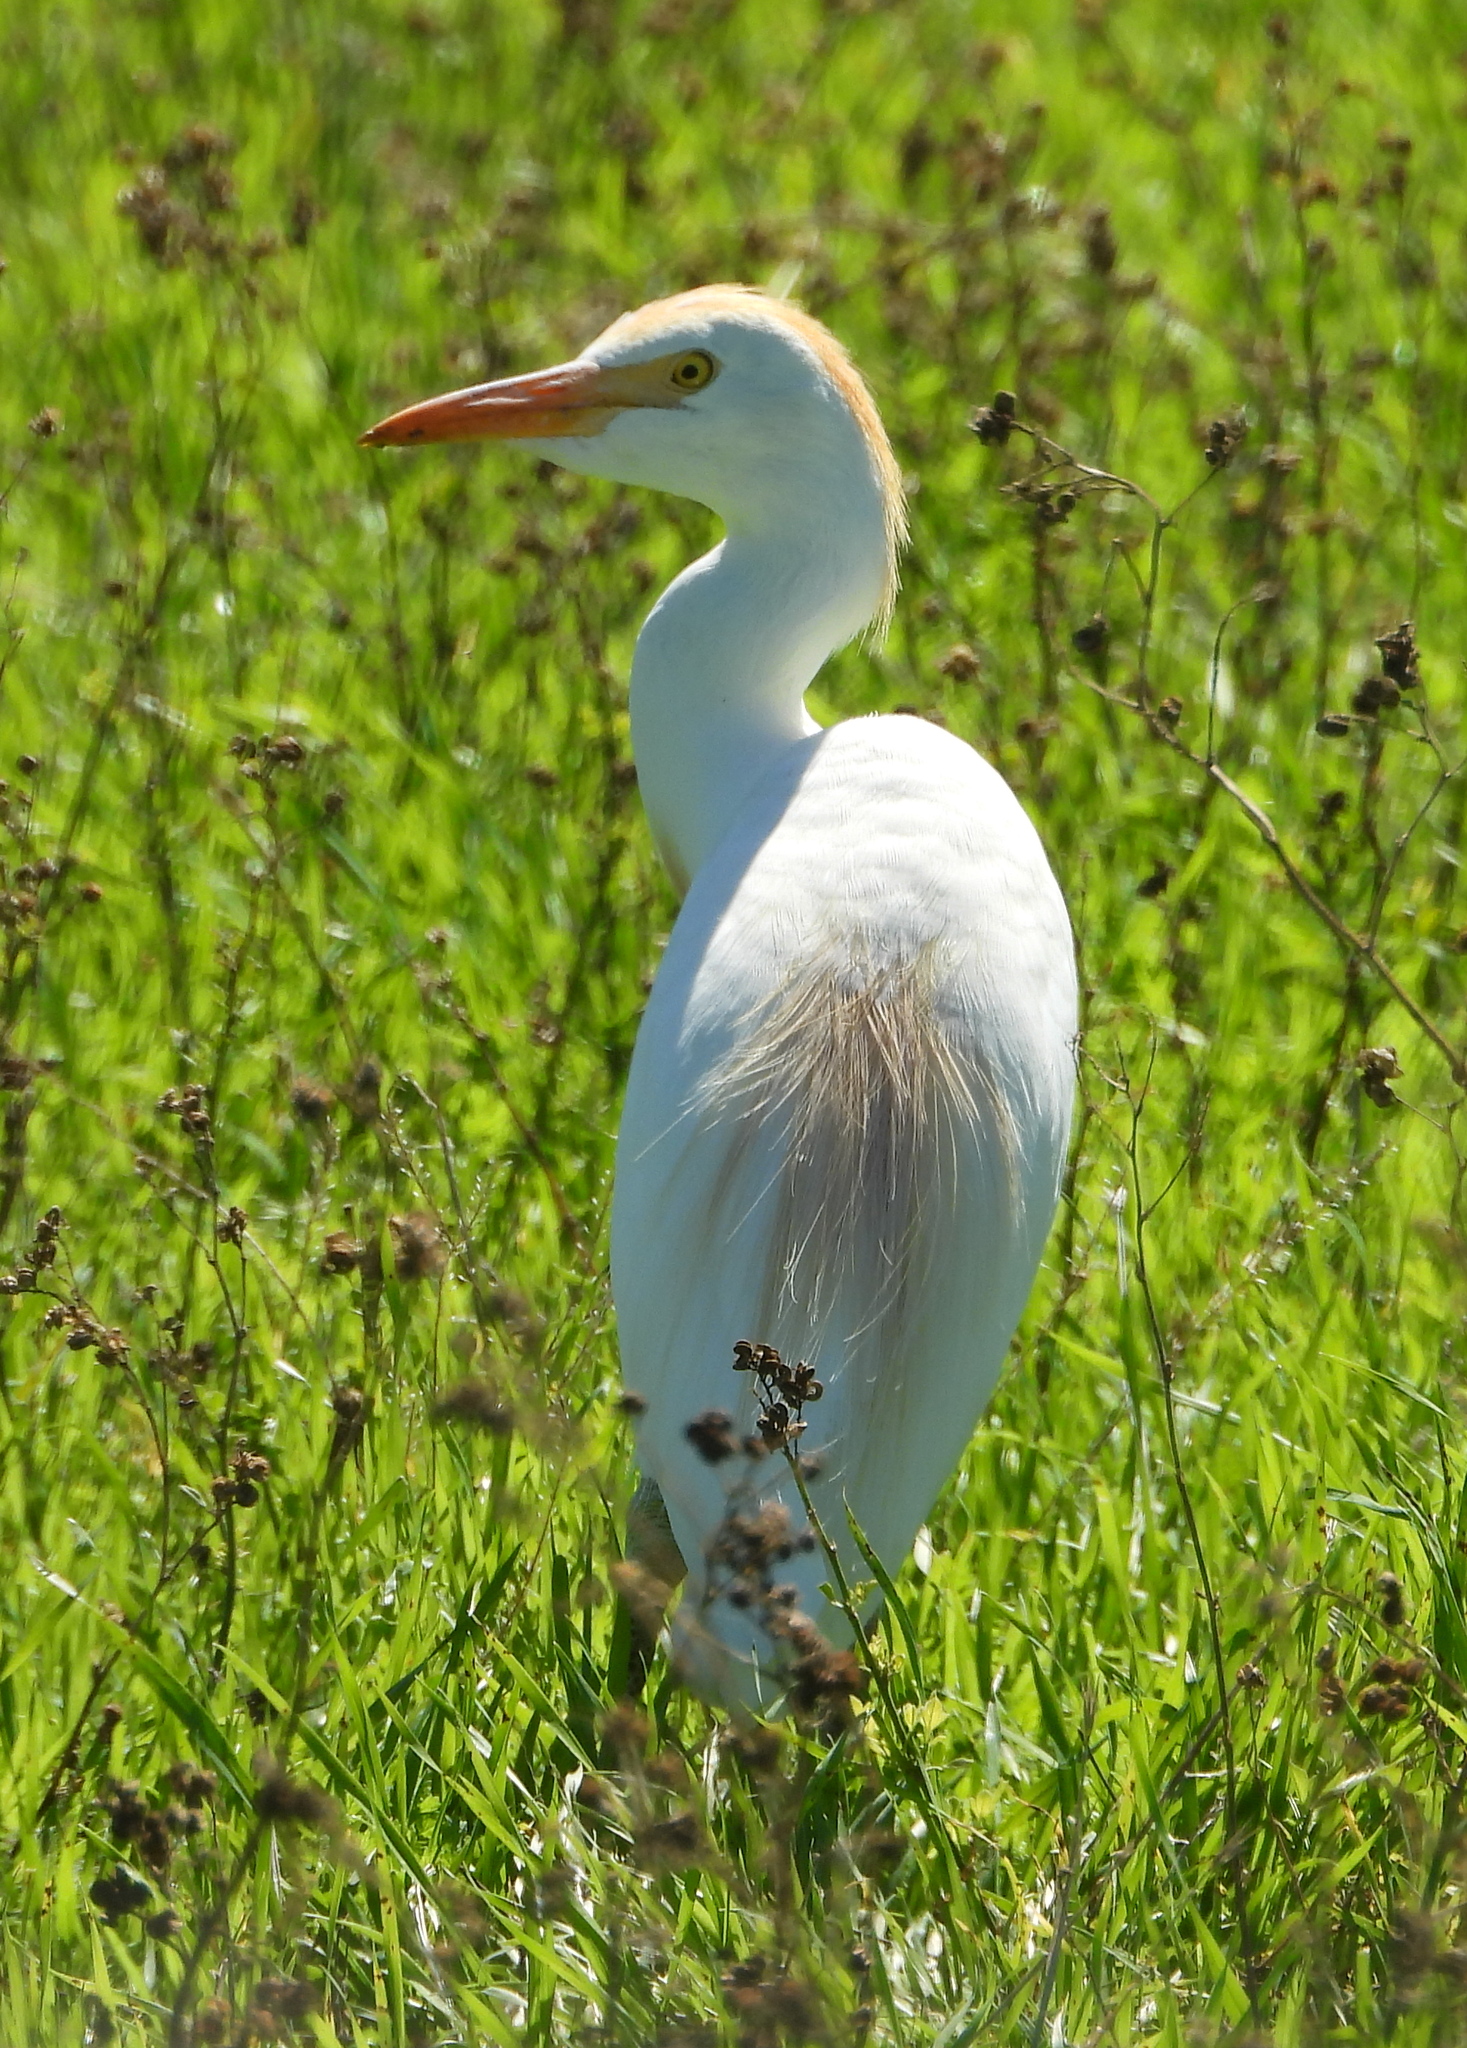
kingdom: Animalia
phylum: Chordata
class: Aves
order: Pelecaniformes
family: Ardeidae
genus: Bubulcus
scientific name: Bubulcus ibis
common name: Cattle egret
